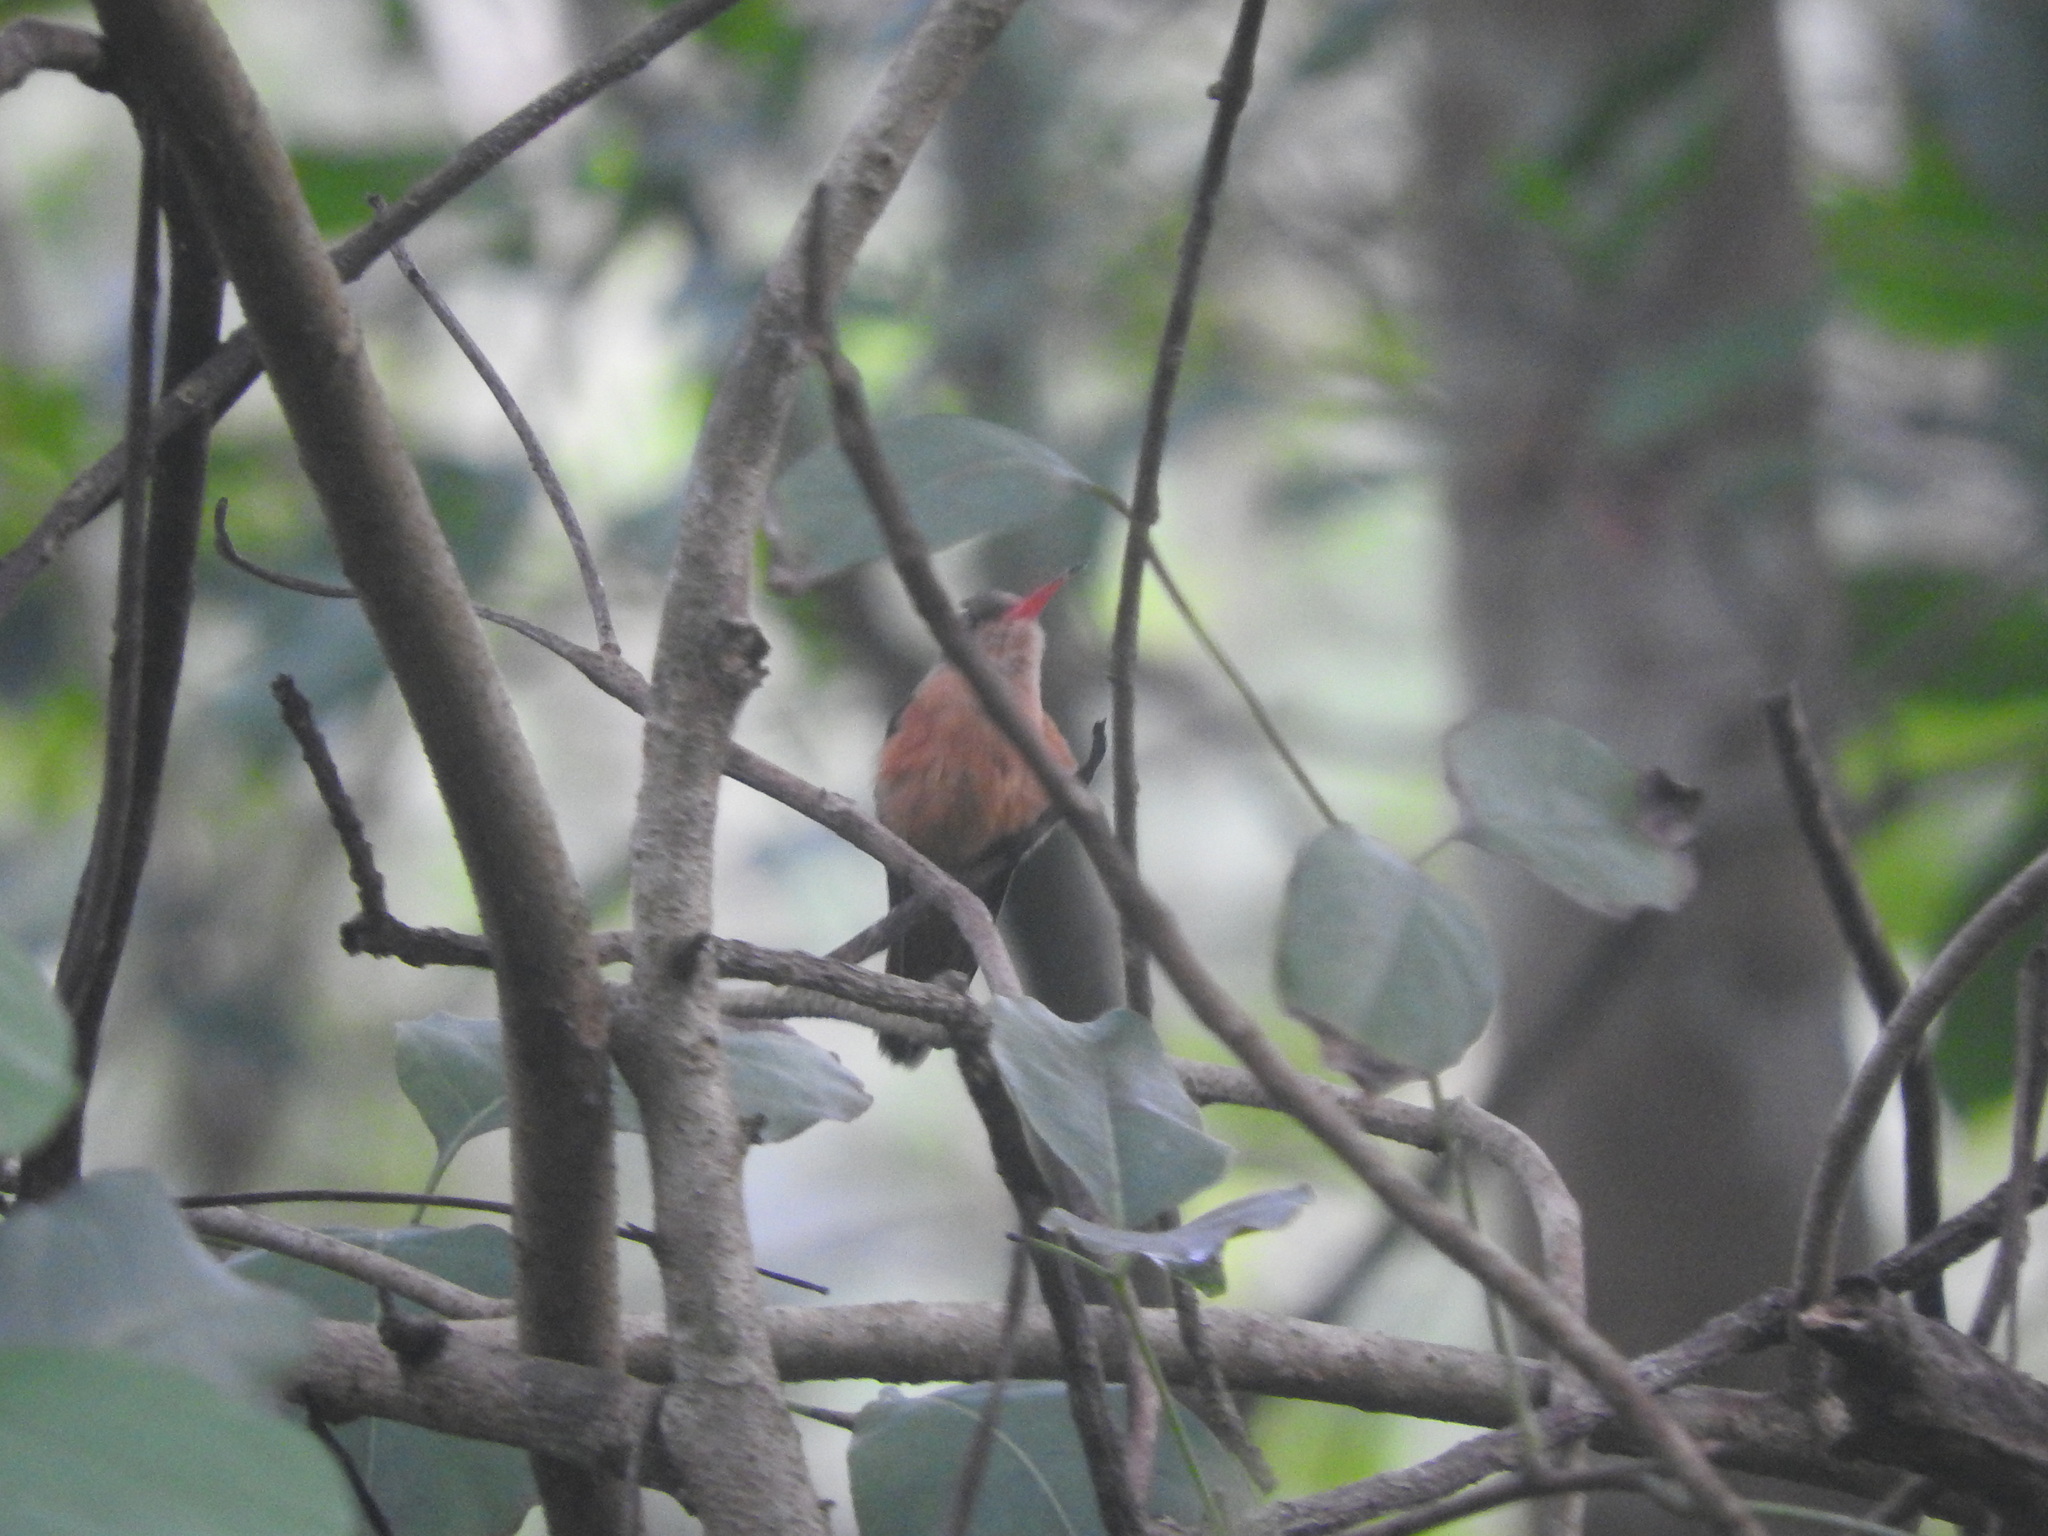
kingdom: Animalia
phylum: Chordata
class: Aves
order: Apodiformes
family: Trochilidae
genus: Amazilia
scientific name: Amazilia rutila
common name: Cinnamon hummingbird
